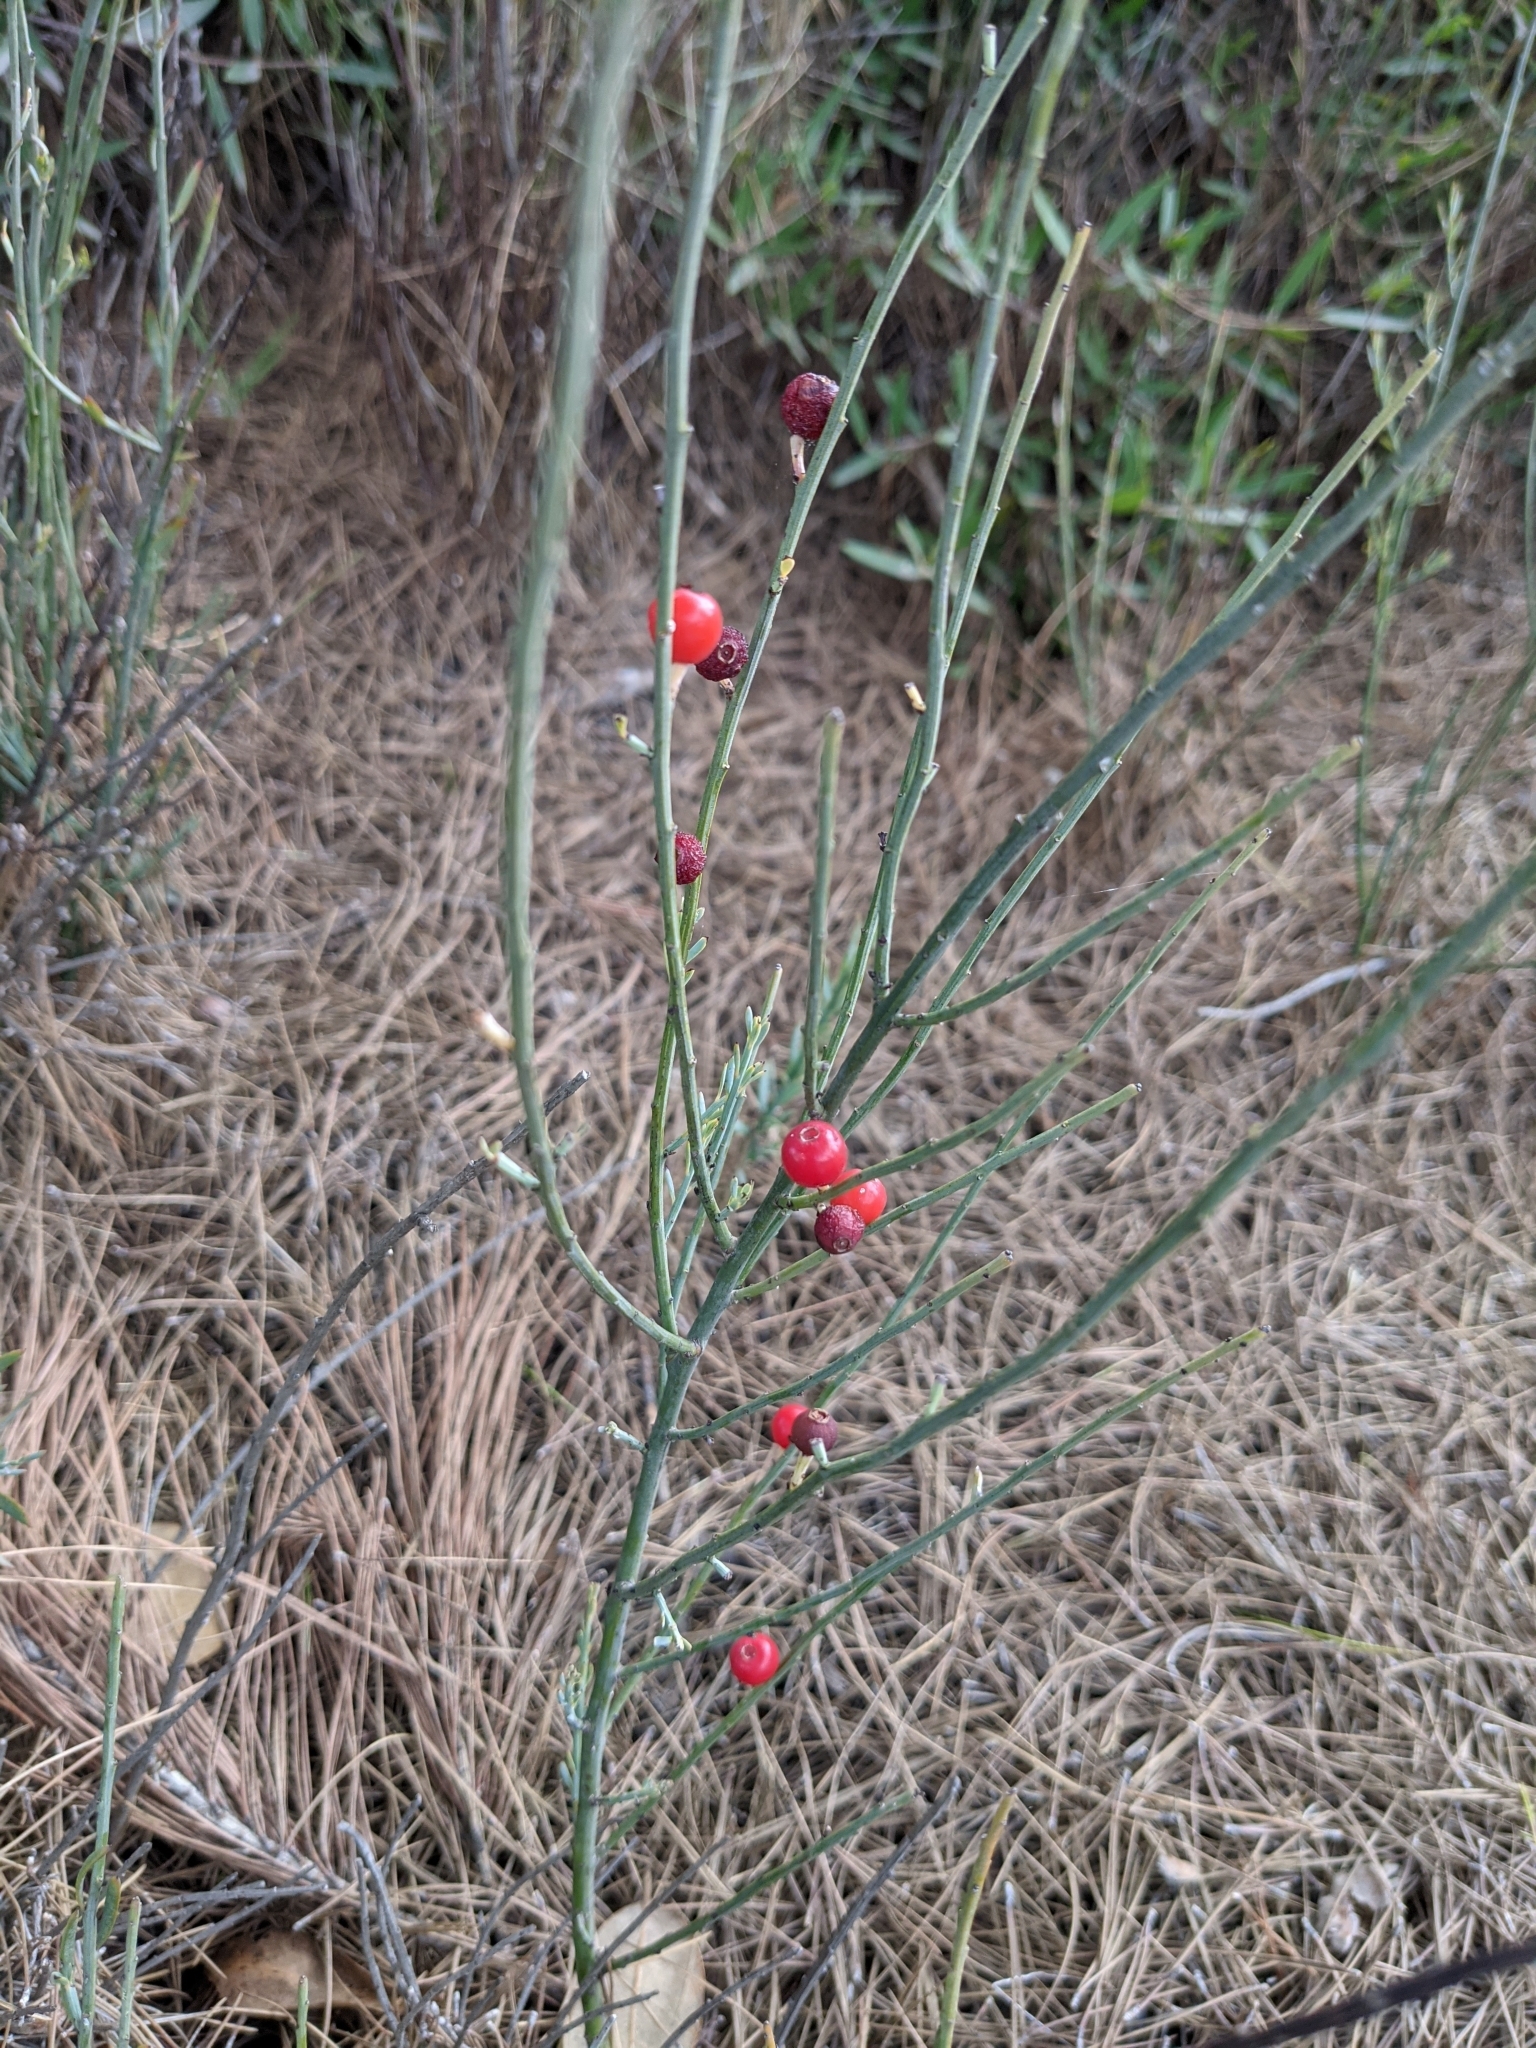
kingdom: Plantae
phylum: Tracheophyta
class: Magnoliopsida
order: Santalales
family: Santalaceae
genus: Osyris
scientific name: Osyris alba
